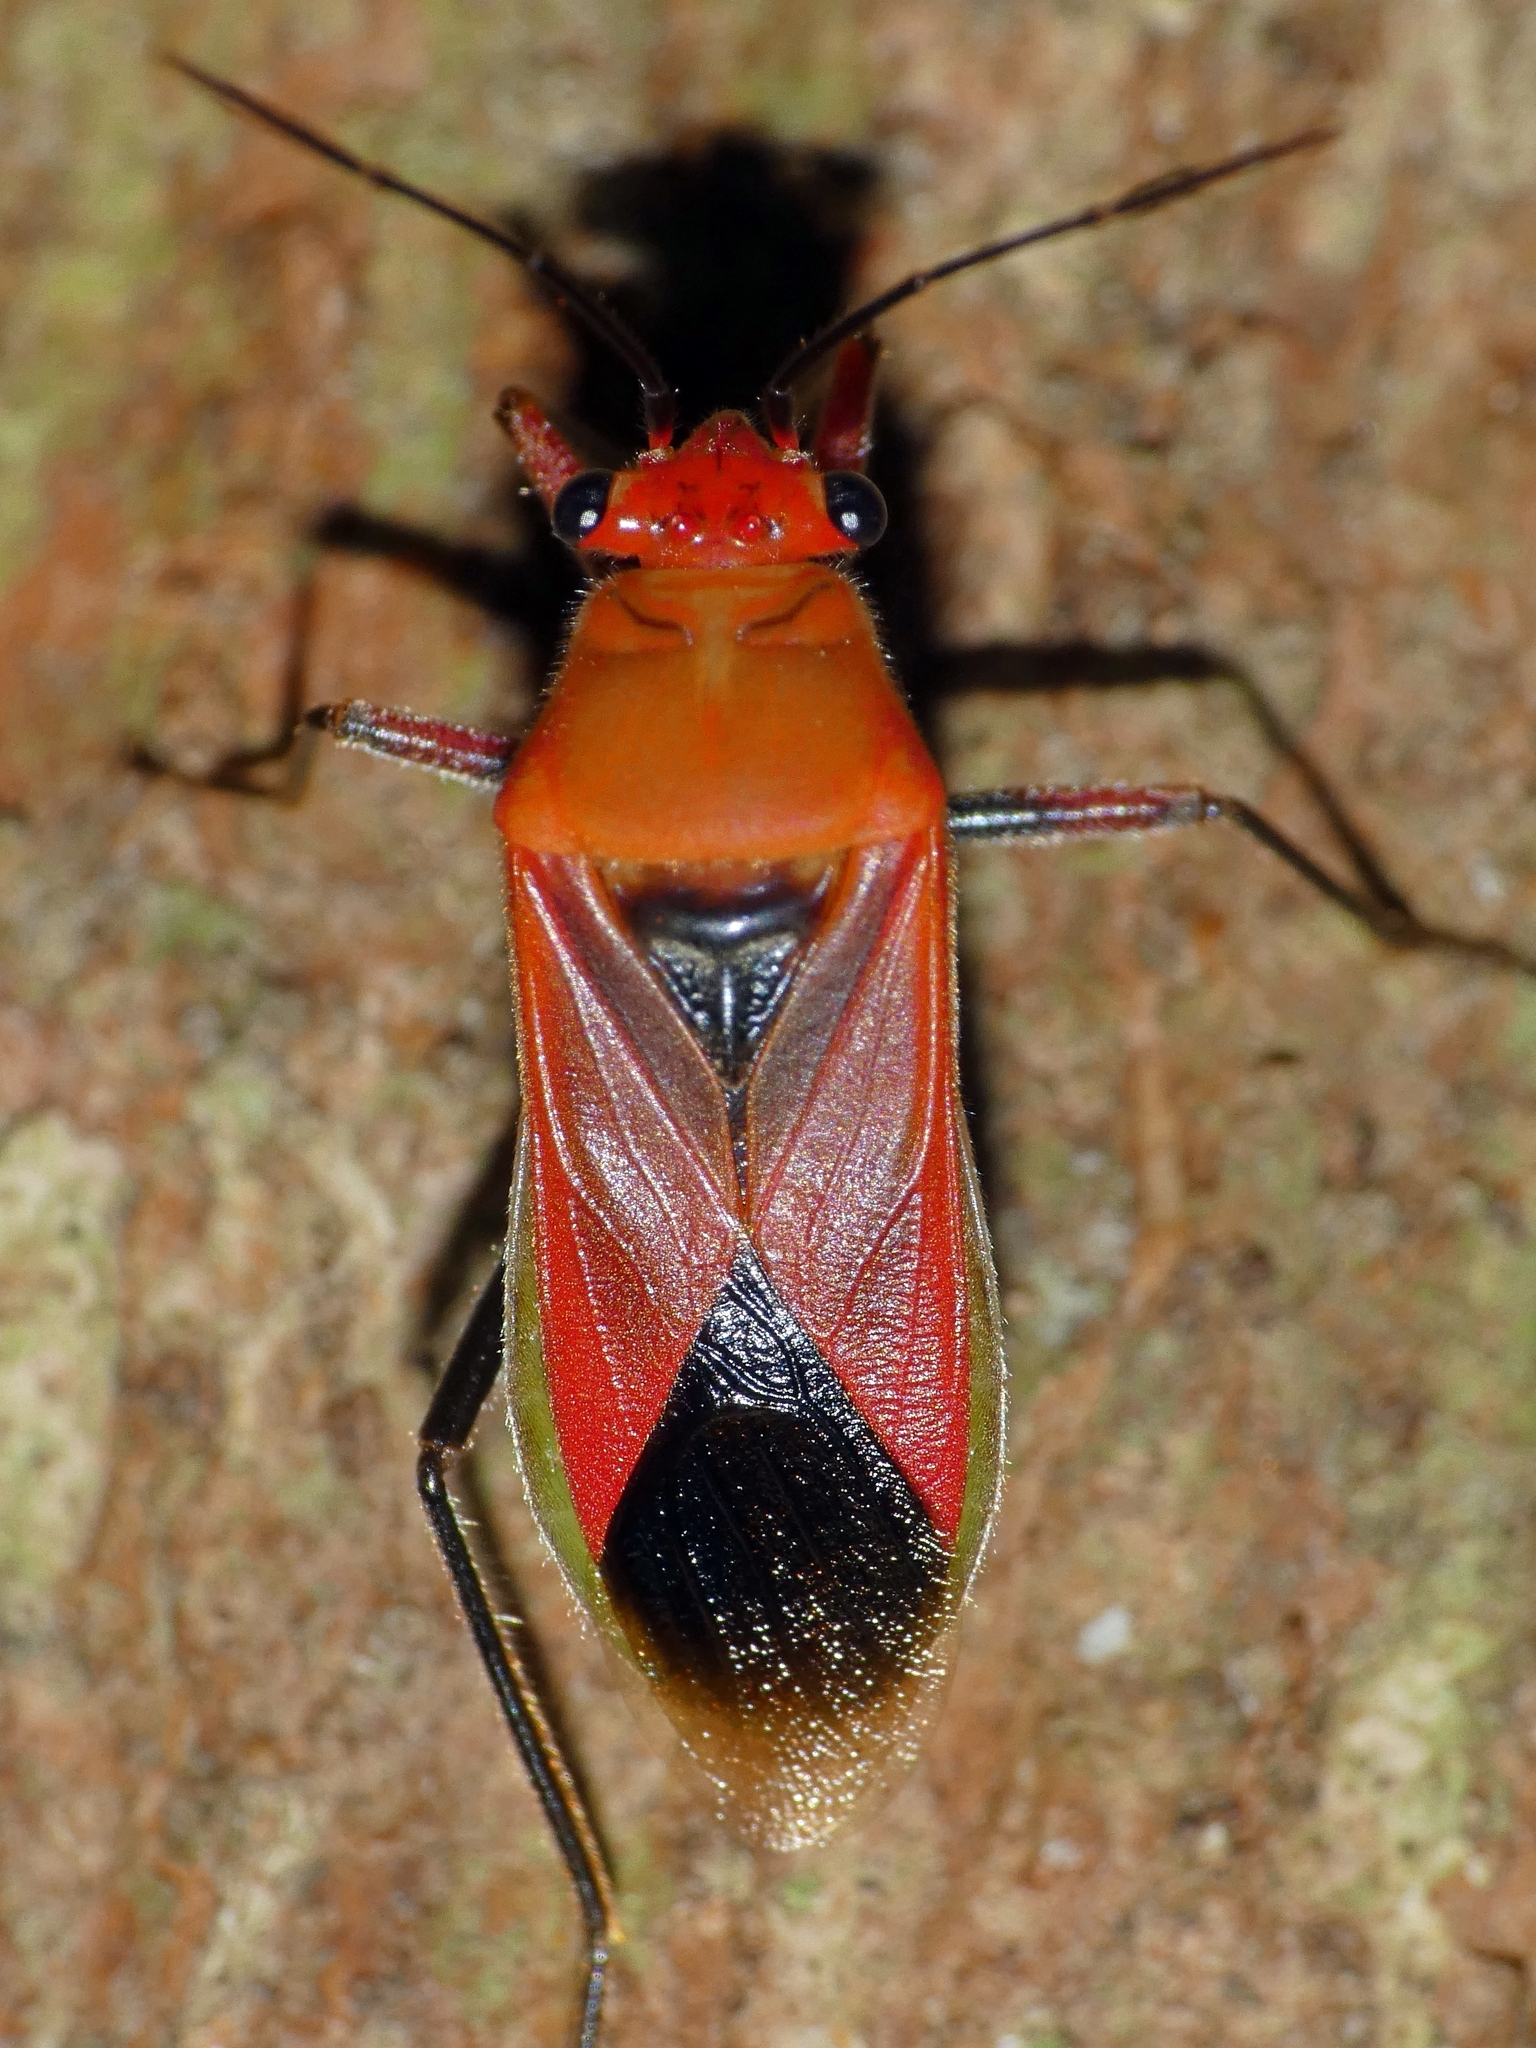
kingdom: Animalia
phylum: Arthropoda
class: Insecta
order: Hemiptera
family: Lygaeidae
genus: Astacops
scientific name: Astacops viridiventris
